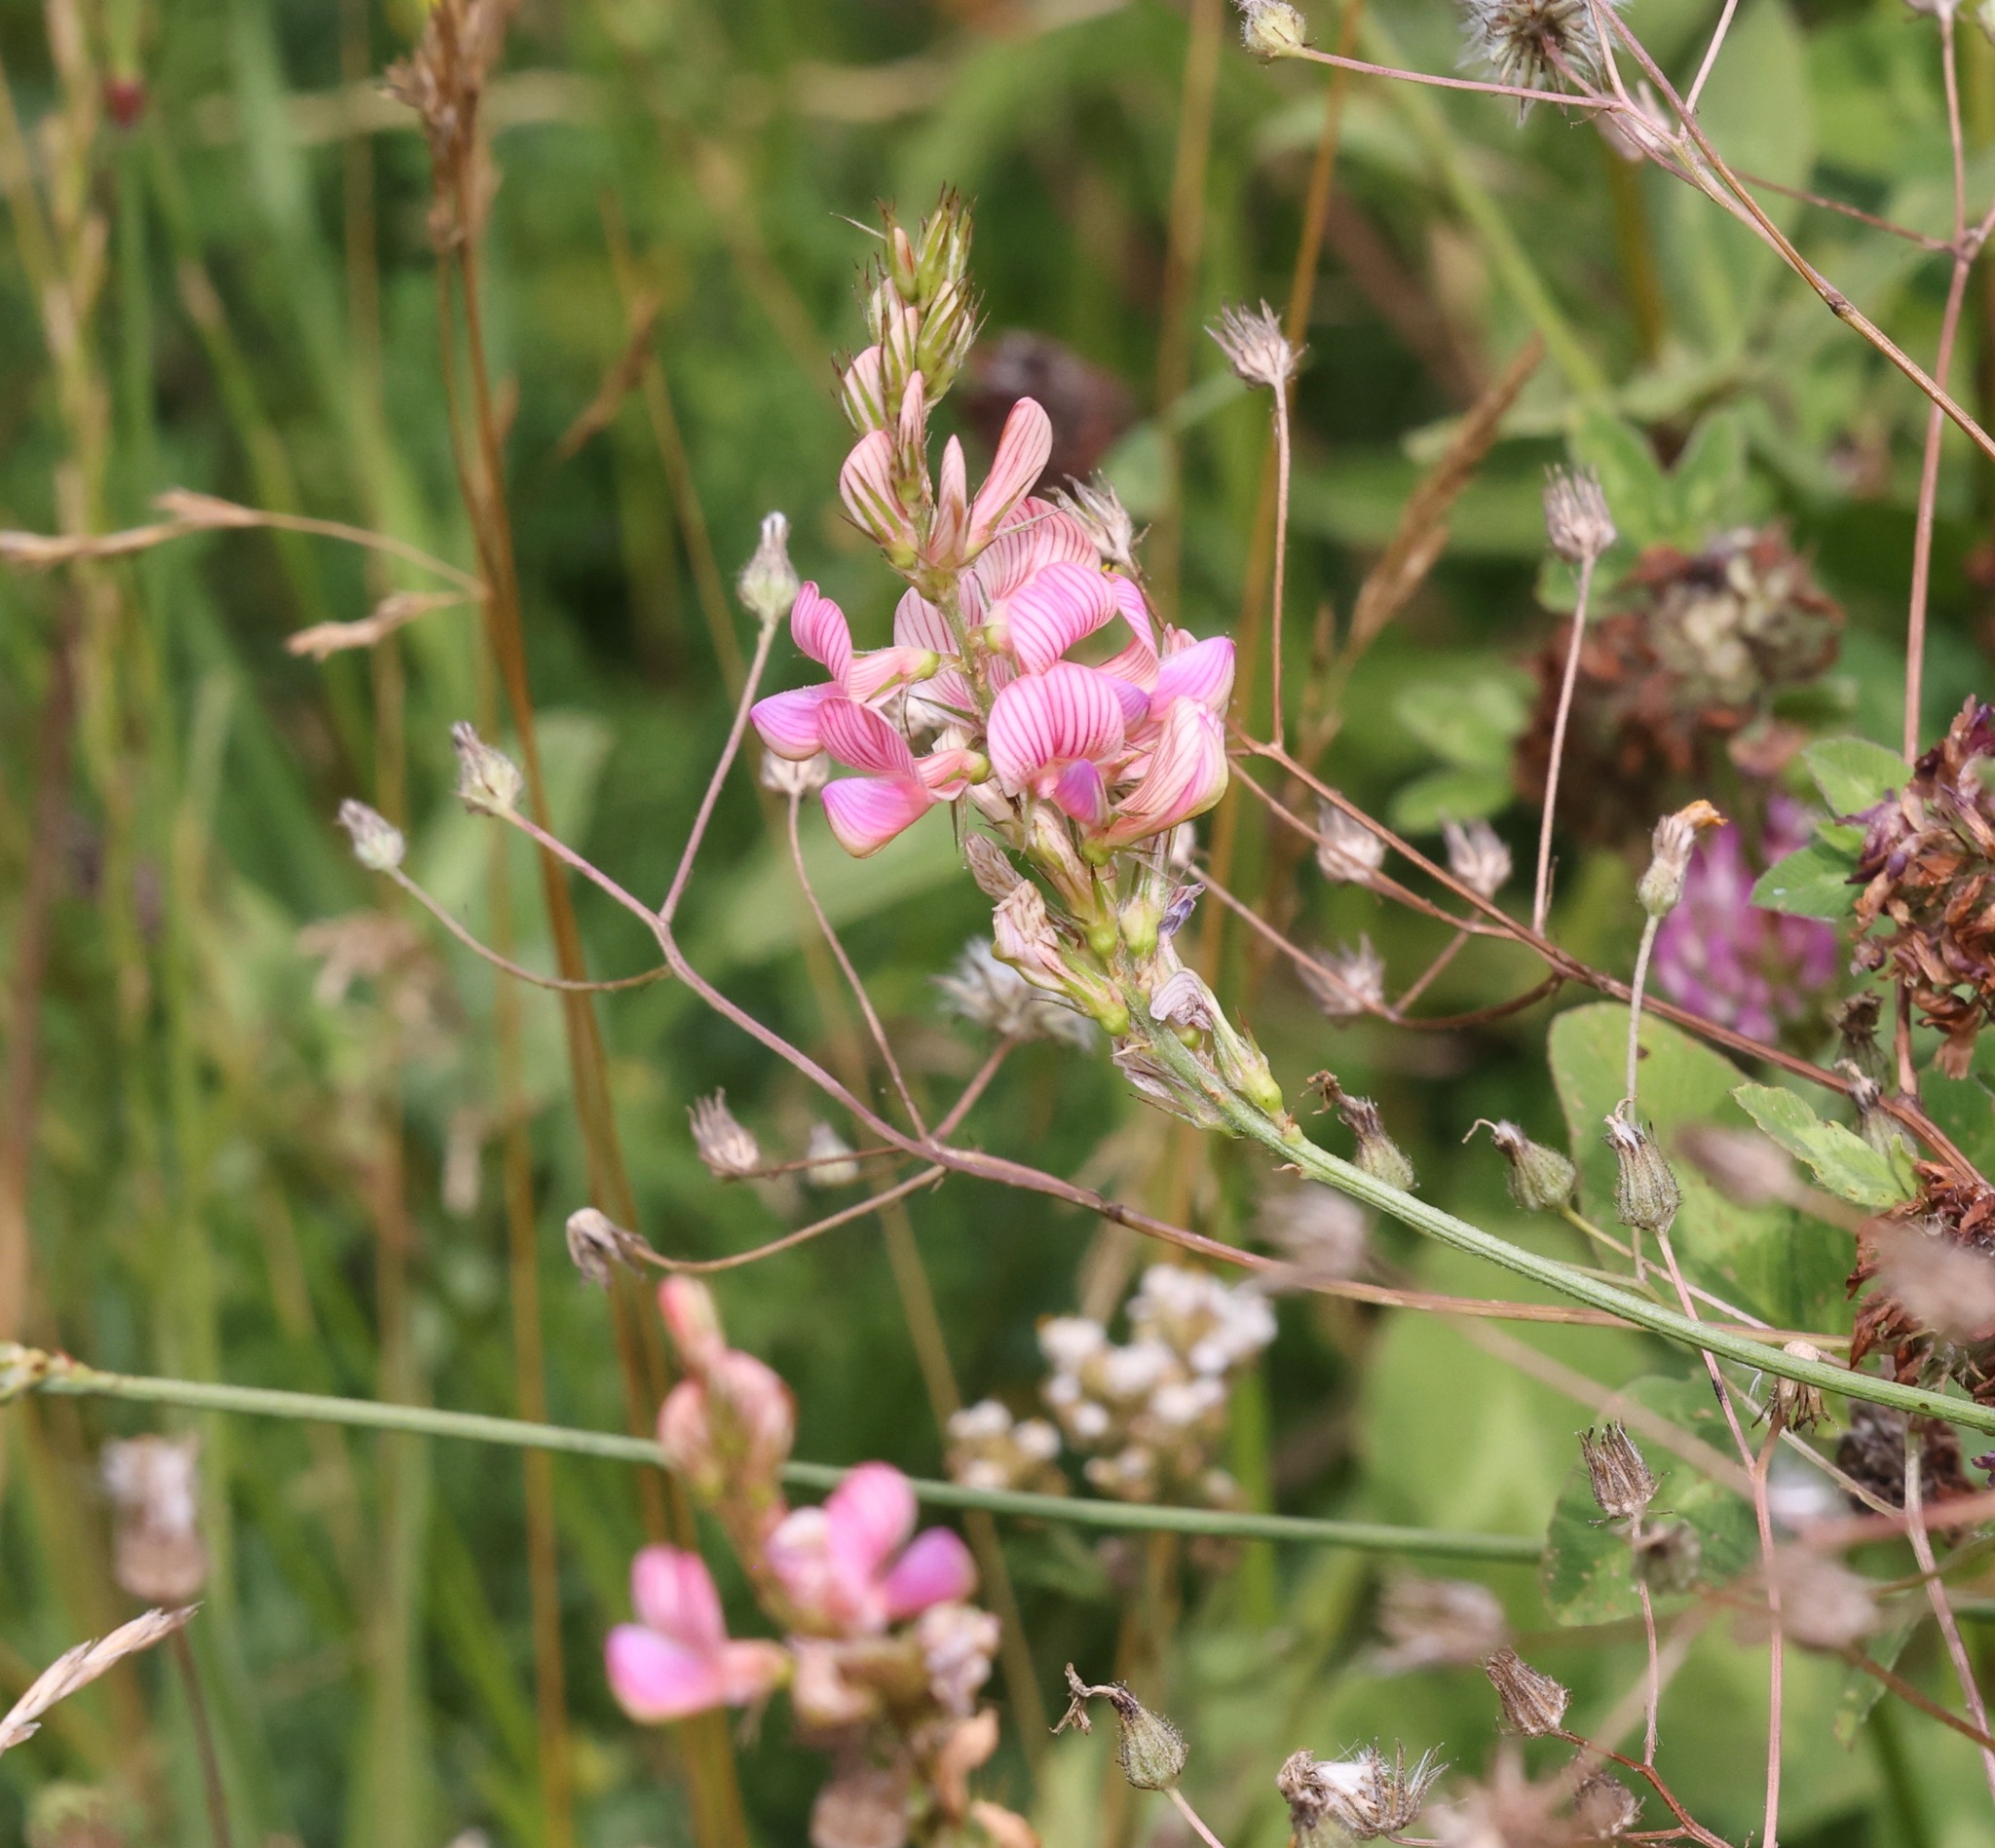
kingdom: Plantae
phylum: Tracheophyta
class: Magnoliopsida
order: Fabales
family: Fabaceae
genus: Onobrychis
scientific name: Onobrychis viciifolia
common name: Sainfoin
